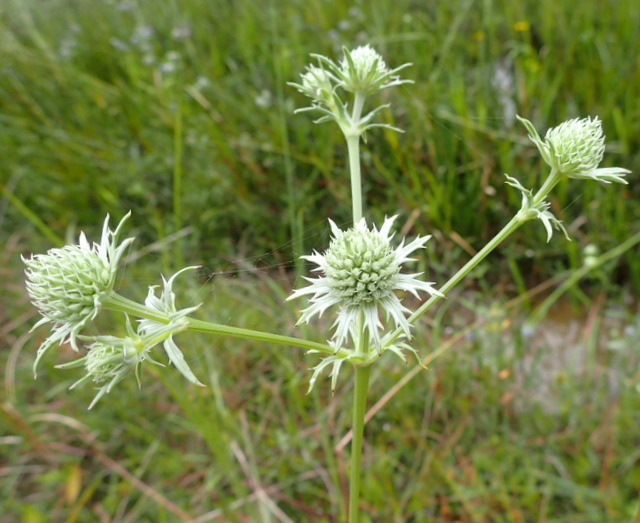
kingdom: Plantae
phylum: Tracheophyta
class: Magnoliopsida
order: Apiales
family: Apiaceae
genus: Eryngium
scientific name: Eryngium aquaticum
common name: Water eryngo
